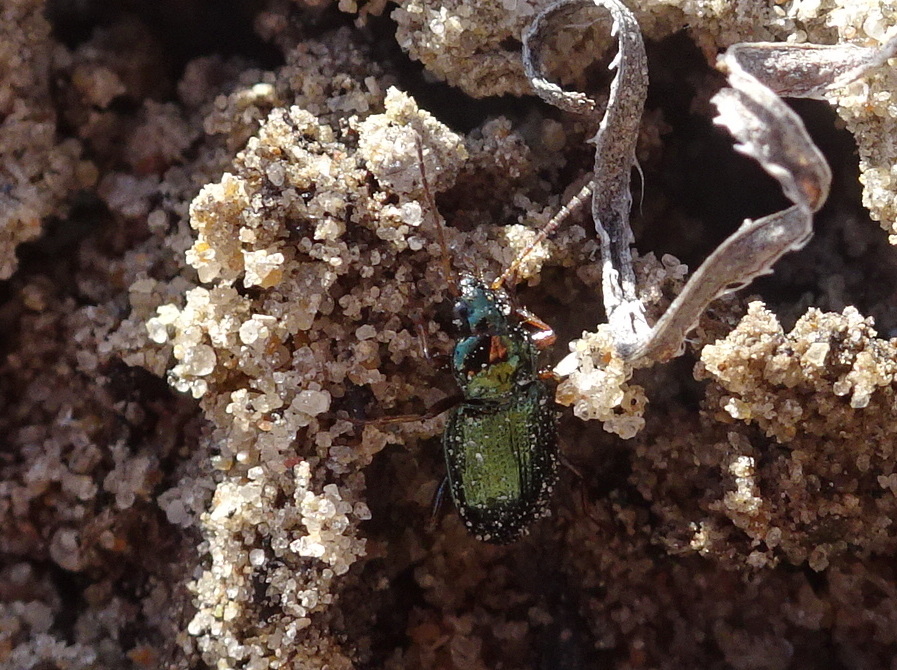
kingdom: Animalia
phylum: Arthropoda
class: Insecta
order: Coleoptera
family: Carabidae
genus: Bembidion
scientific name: Bembidion levigatum
